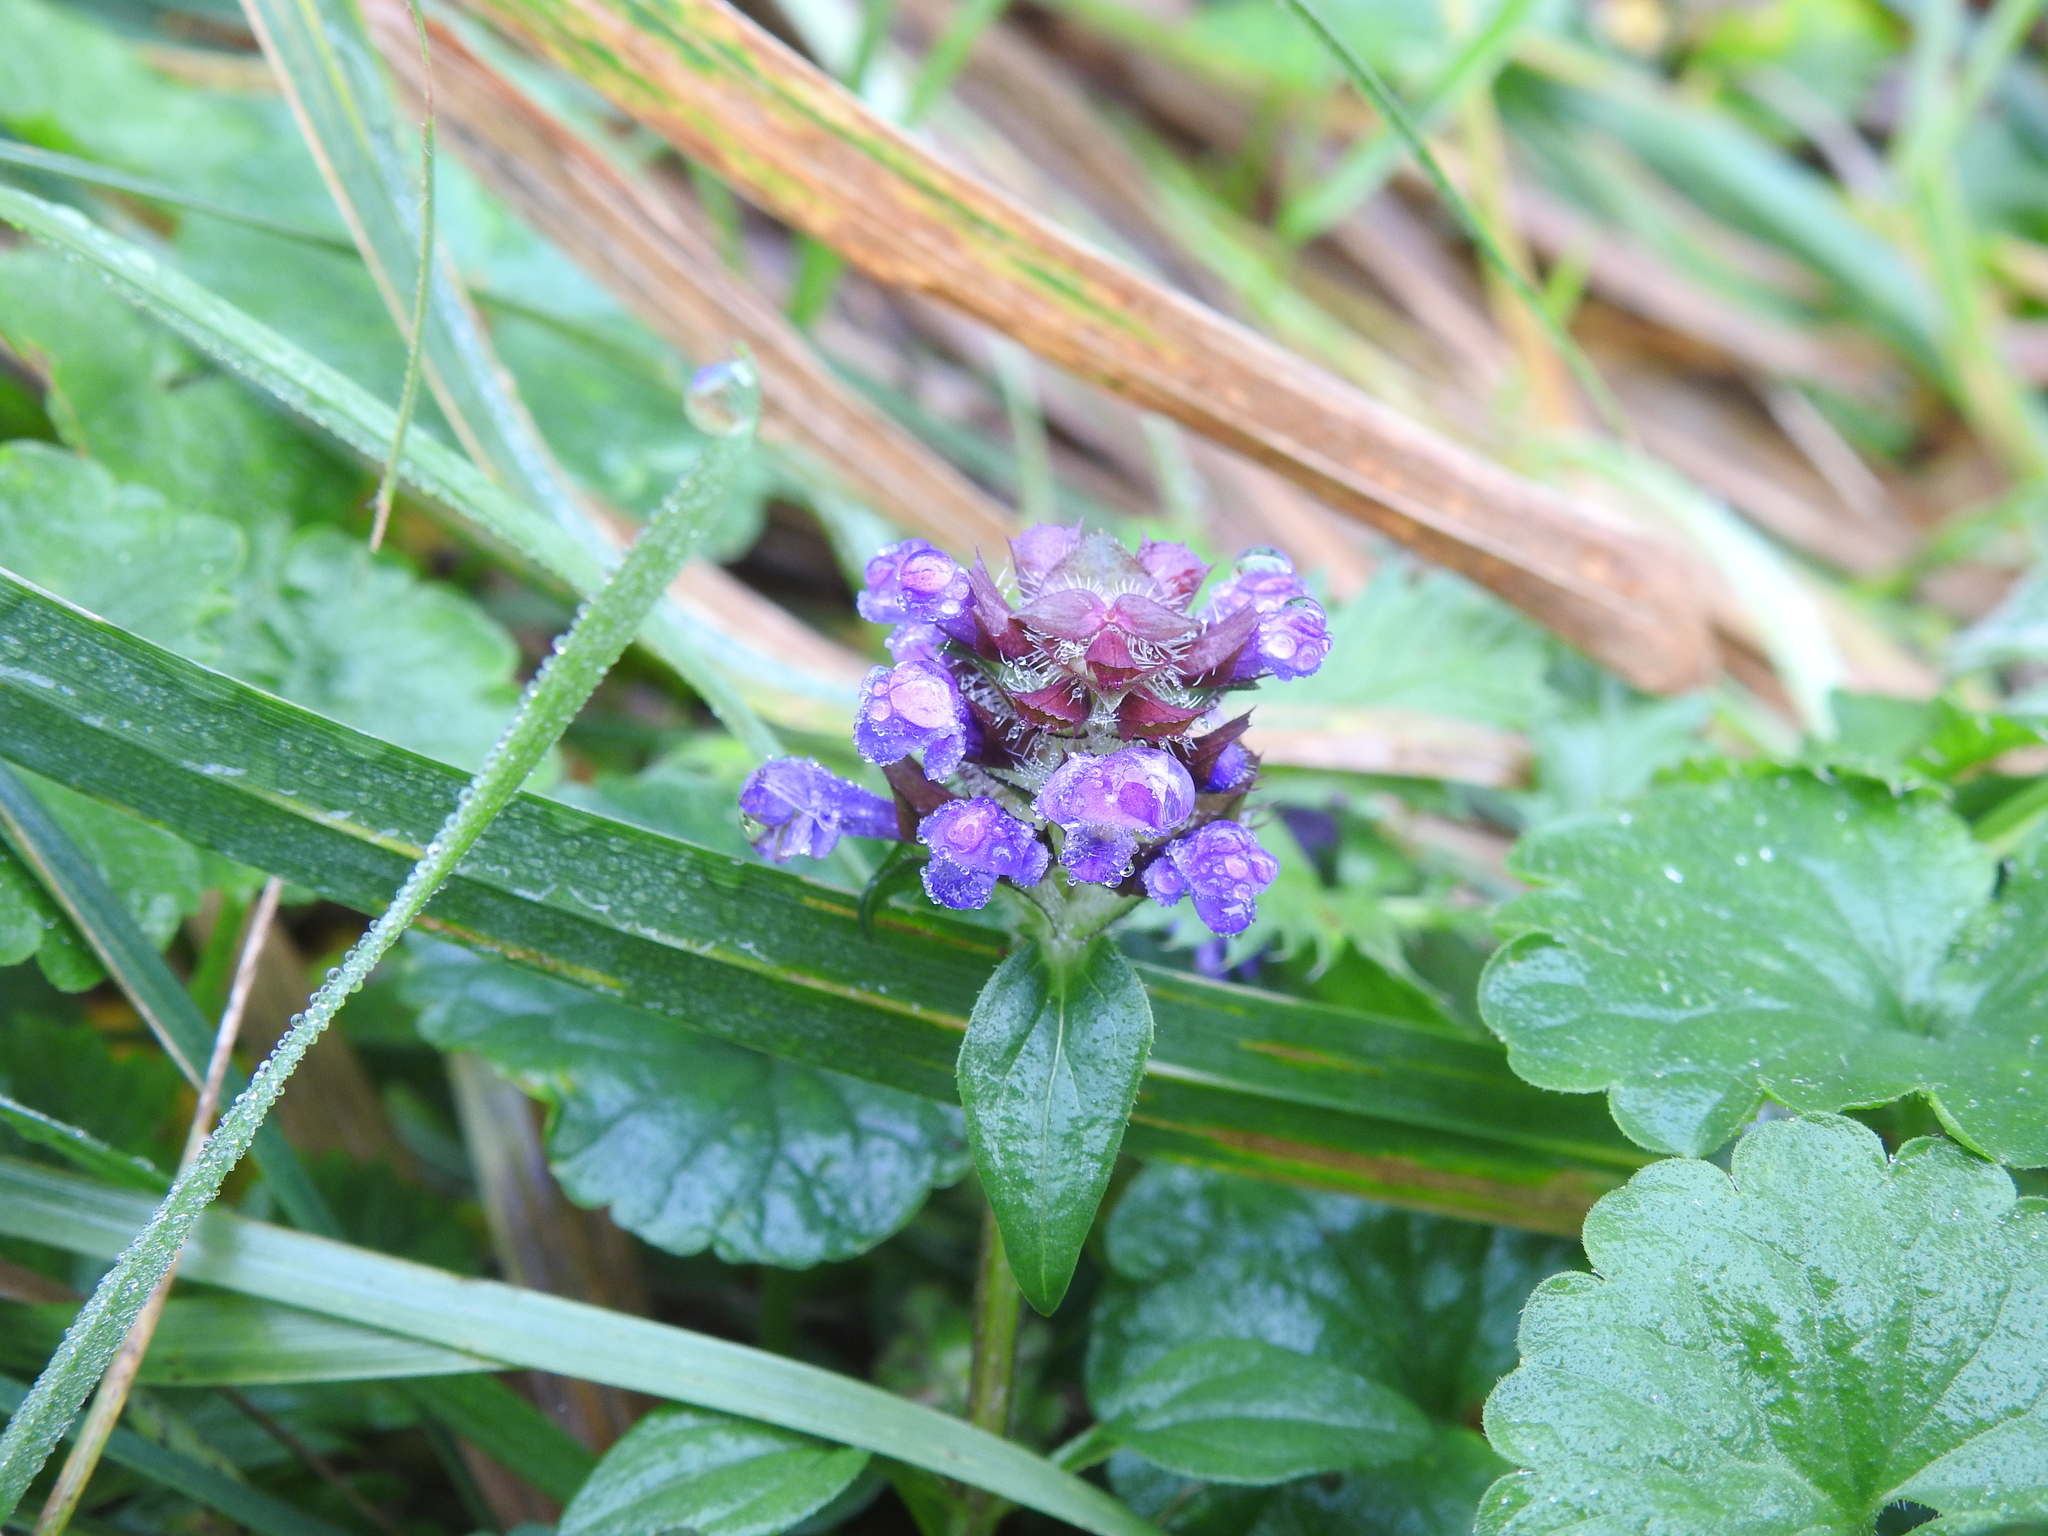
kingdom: Plantae
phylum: Tracheophyta
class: Magnoliopsida
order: Lamiales
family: Lamiaceae
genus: Prunella
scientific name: Prunella vulgaris
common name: Heal-all
